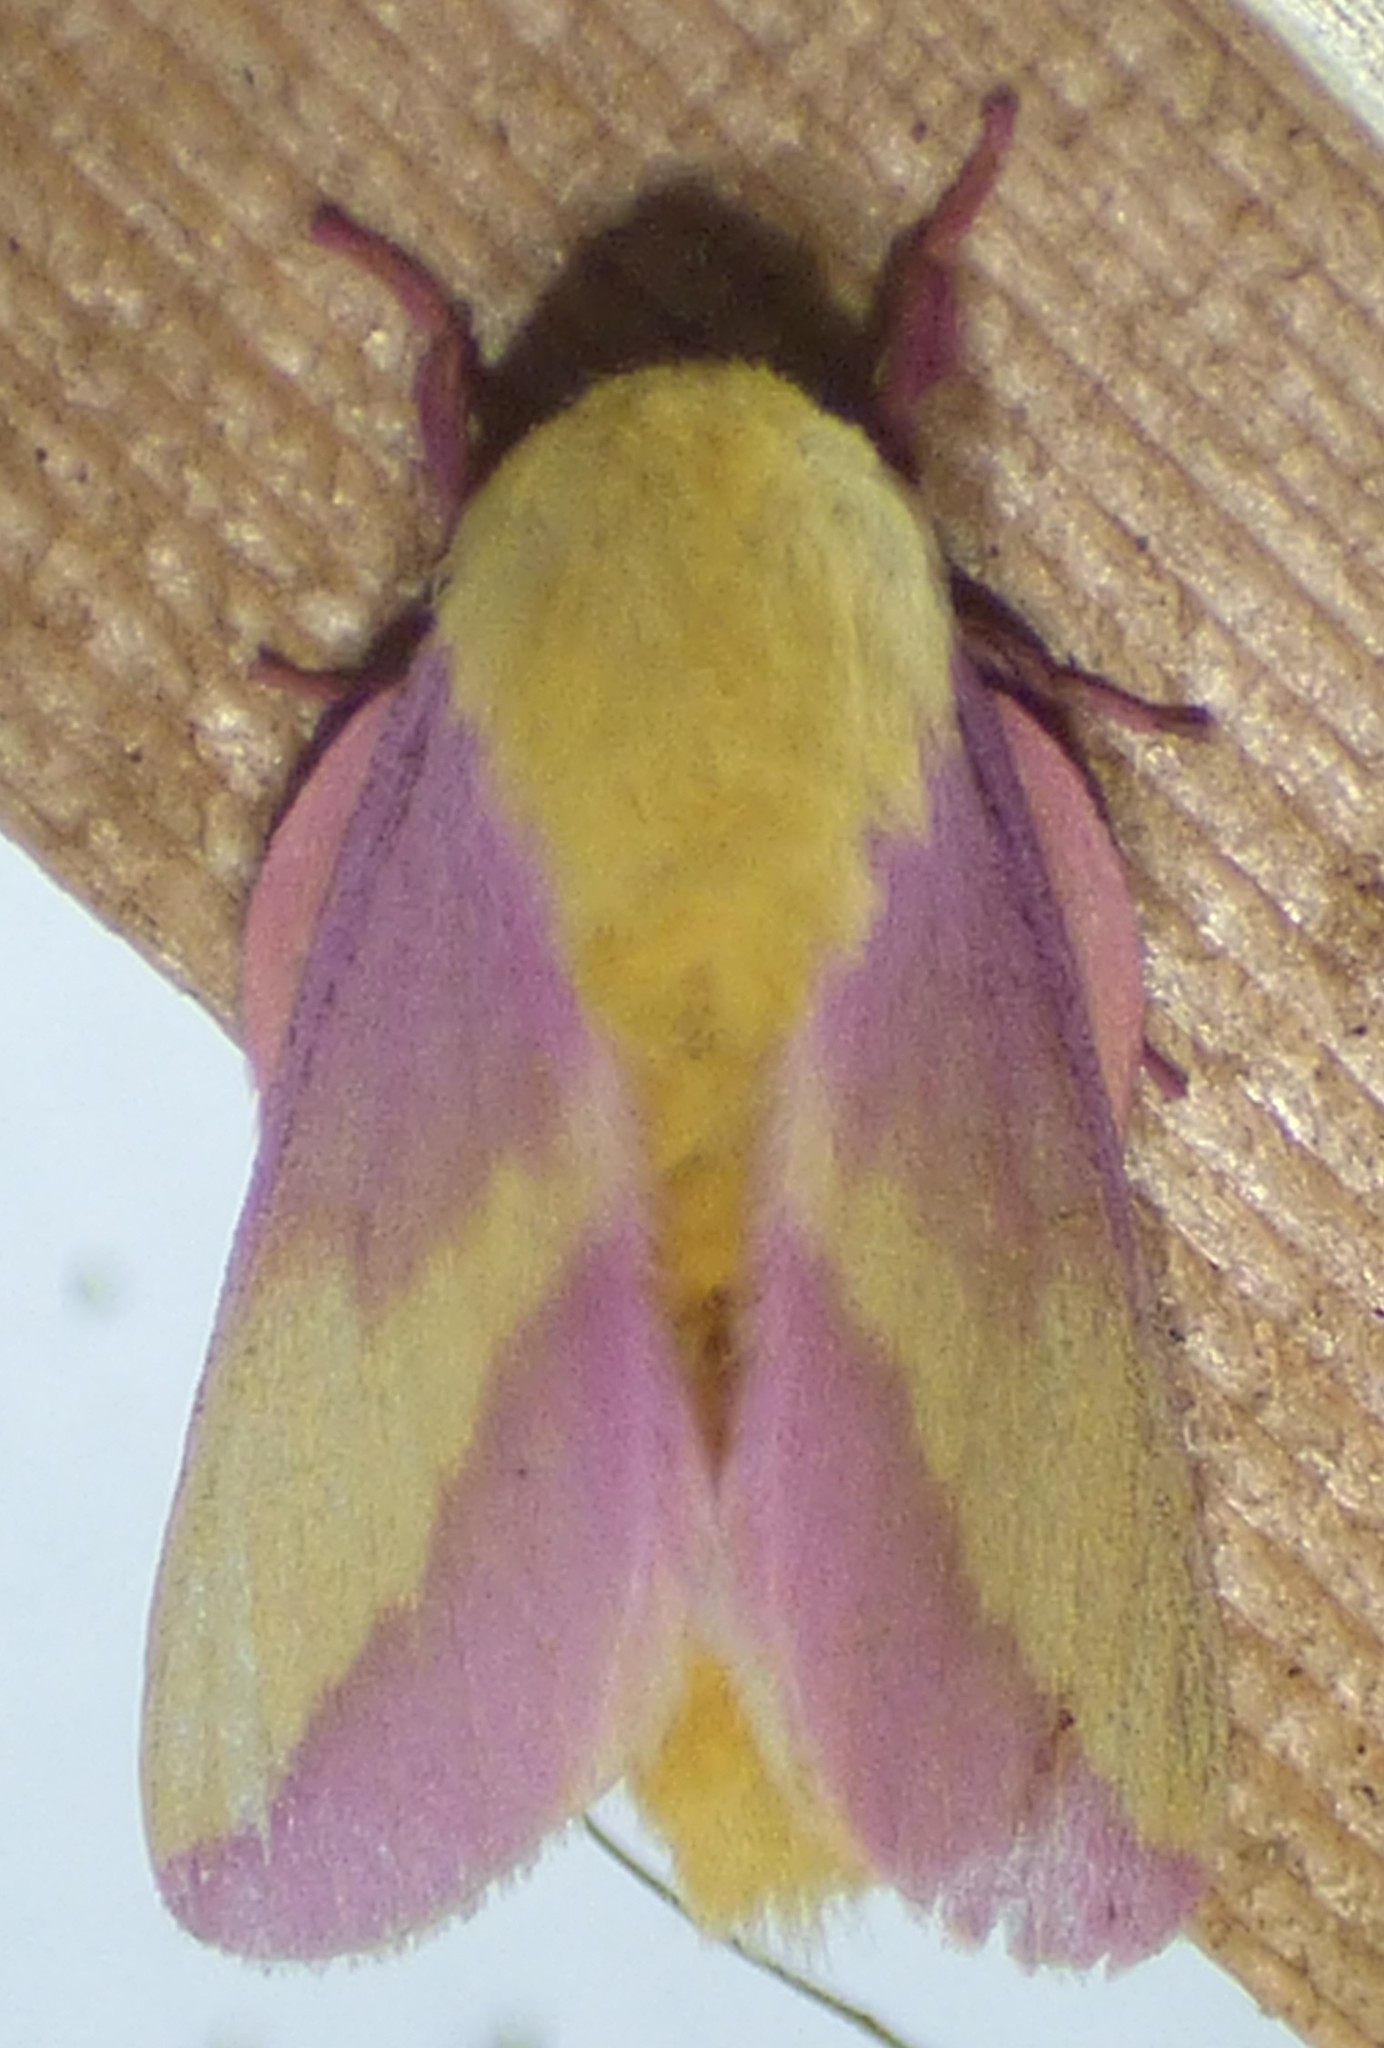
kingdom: Animalia
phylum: Arthropoda
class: Insecta
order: Lepidoptera
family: Saturniidae
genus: Dryocampa
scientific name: Dryocampa rubicunda
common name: Rosy maple moth
